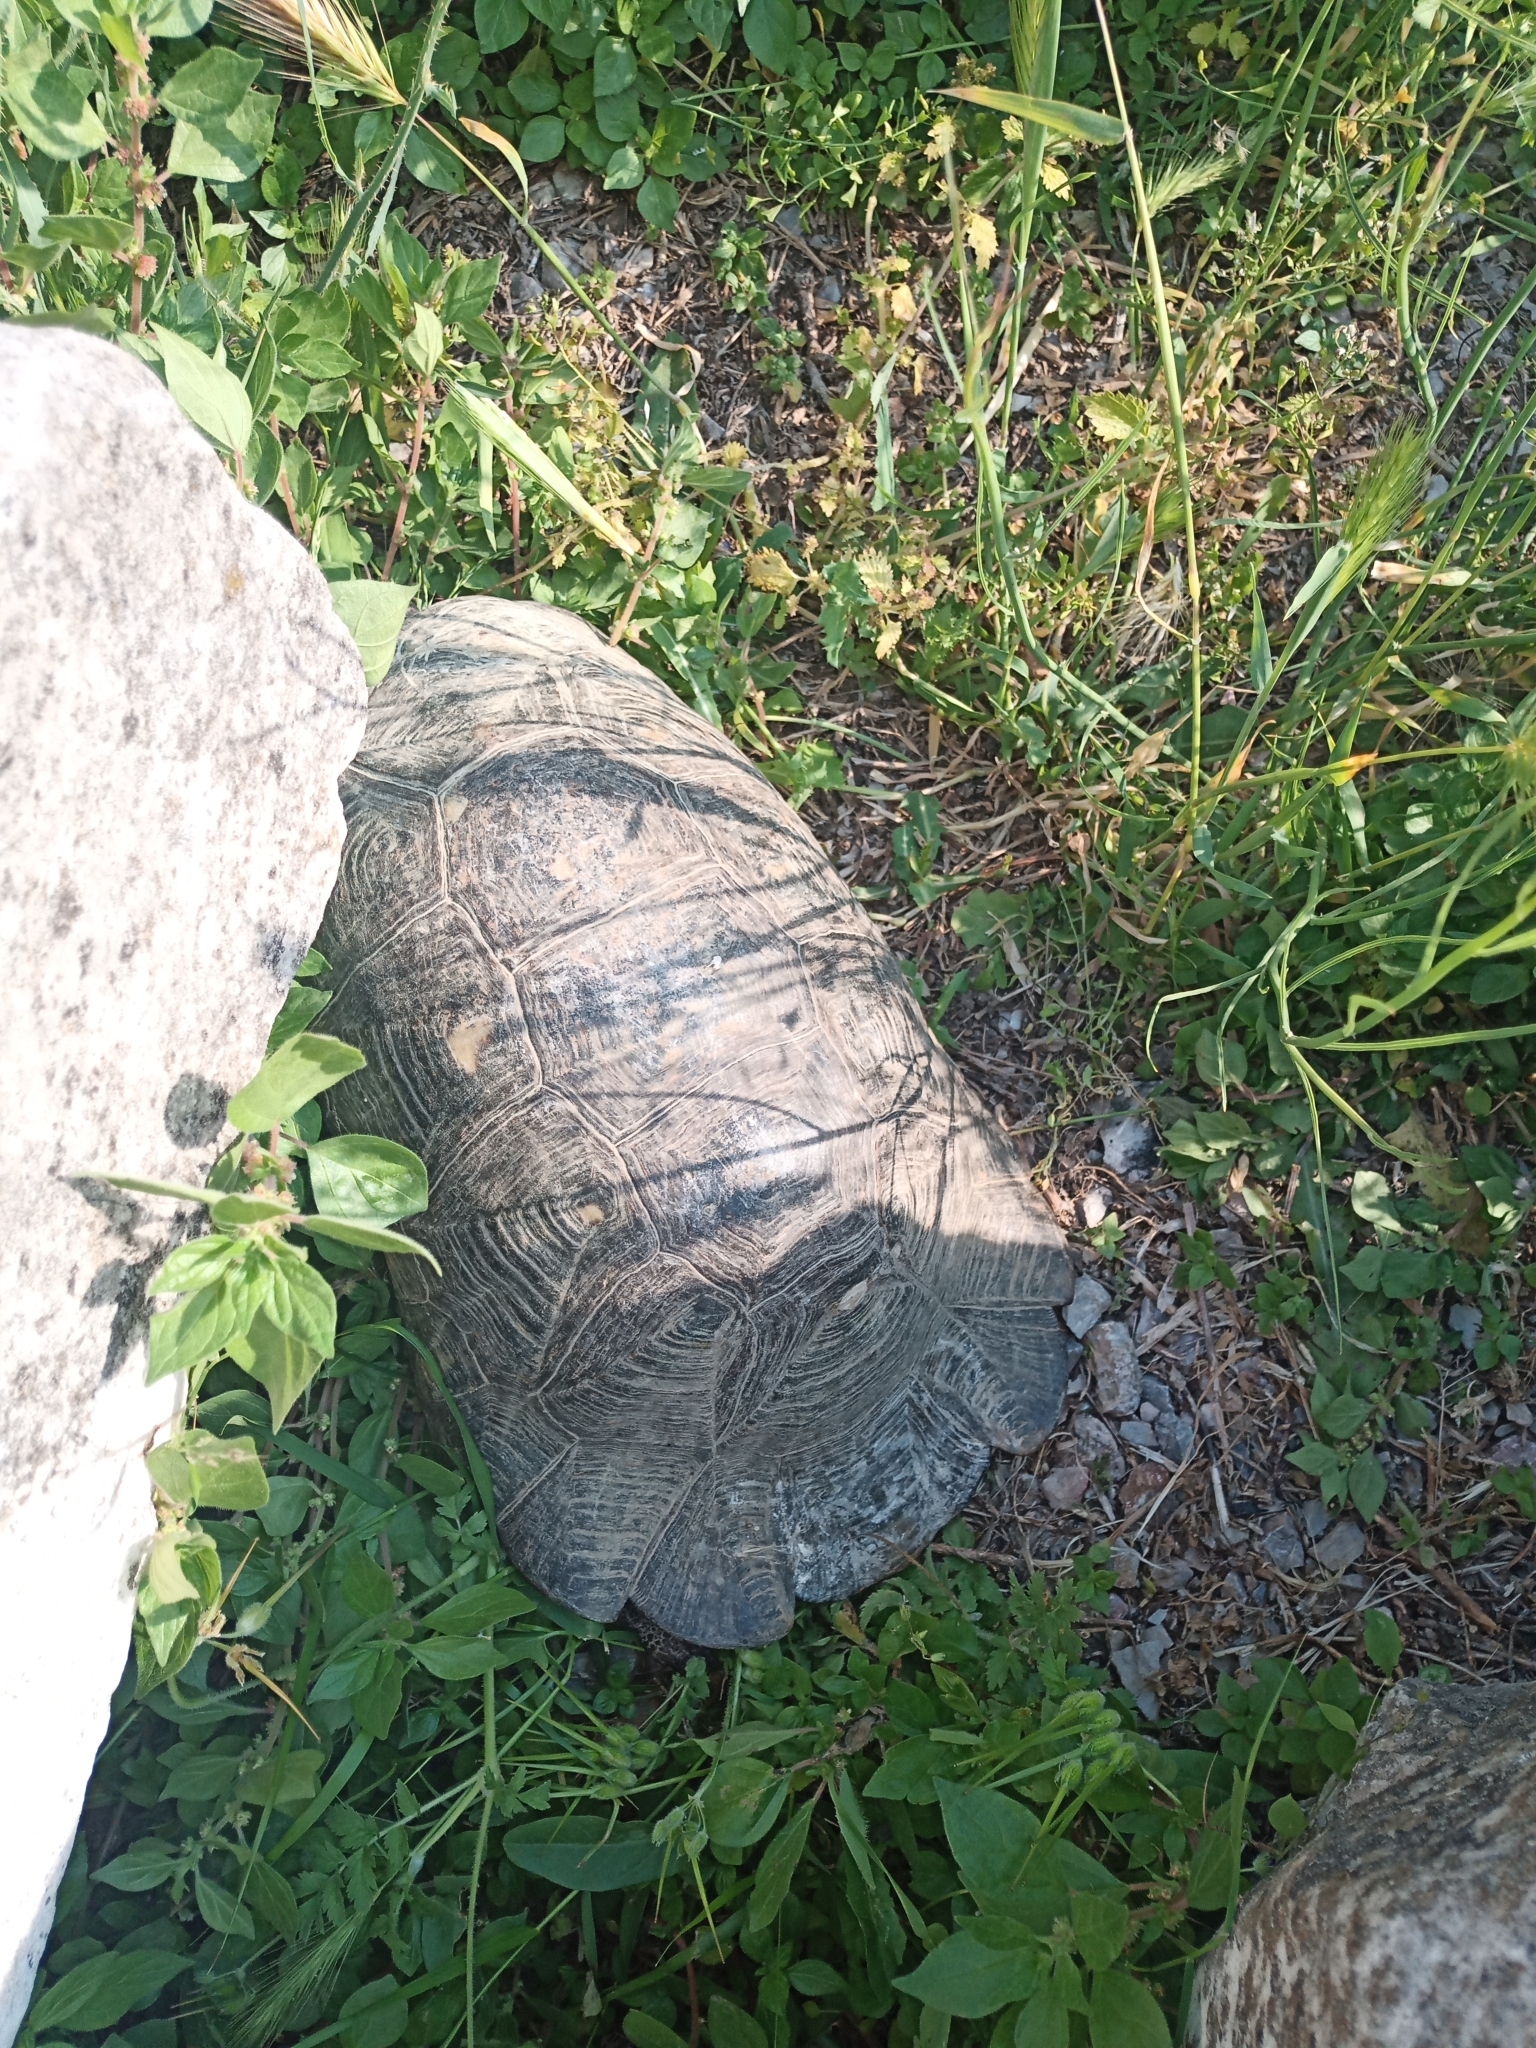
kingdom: Animalia
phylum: Chordata
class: Testudines
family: Testudinidae
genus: Testudo
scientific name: Testudo marginata
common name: Marginated tortoise
